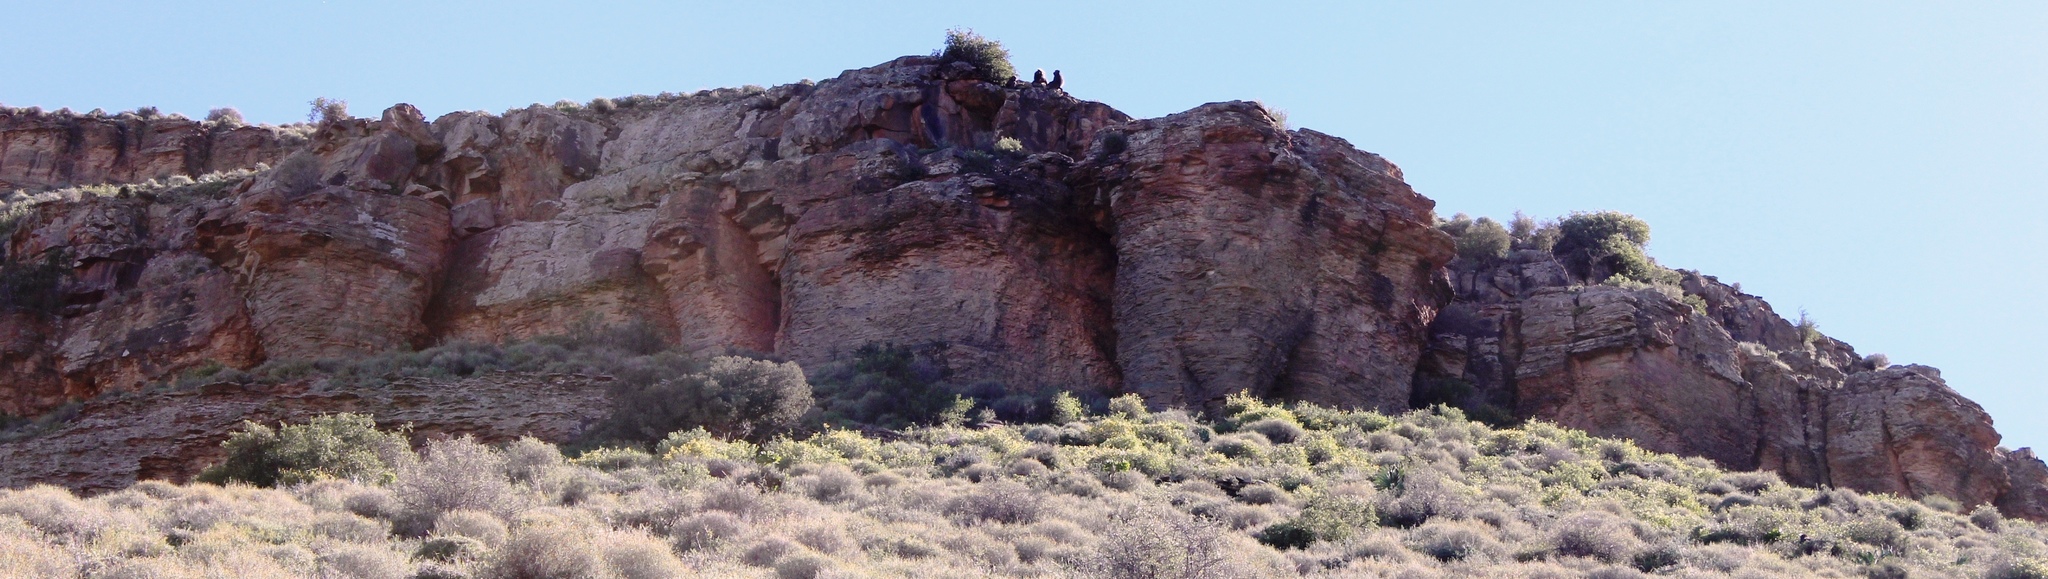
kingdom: Animalia
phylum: Chordata
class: Mammalia
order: Primates
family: Cercopithecidae
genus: Papio
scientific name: Papio ursinus
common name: Chacma baboon
